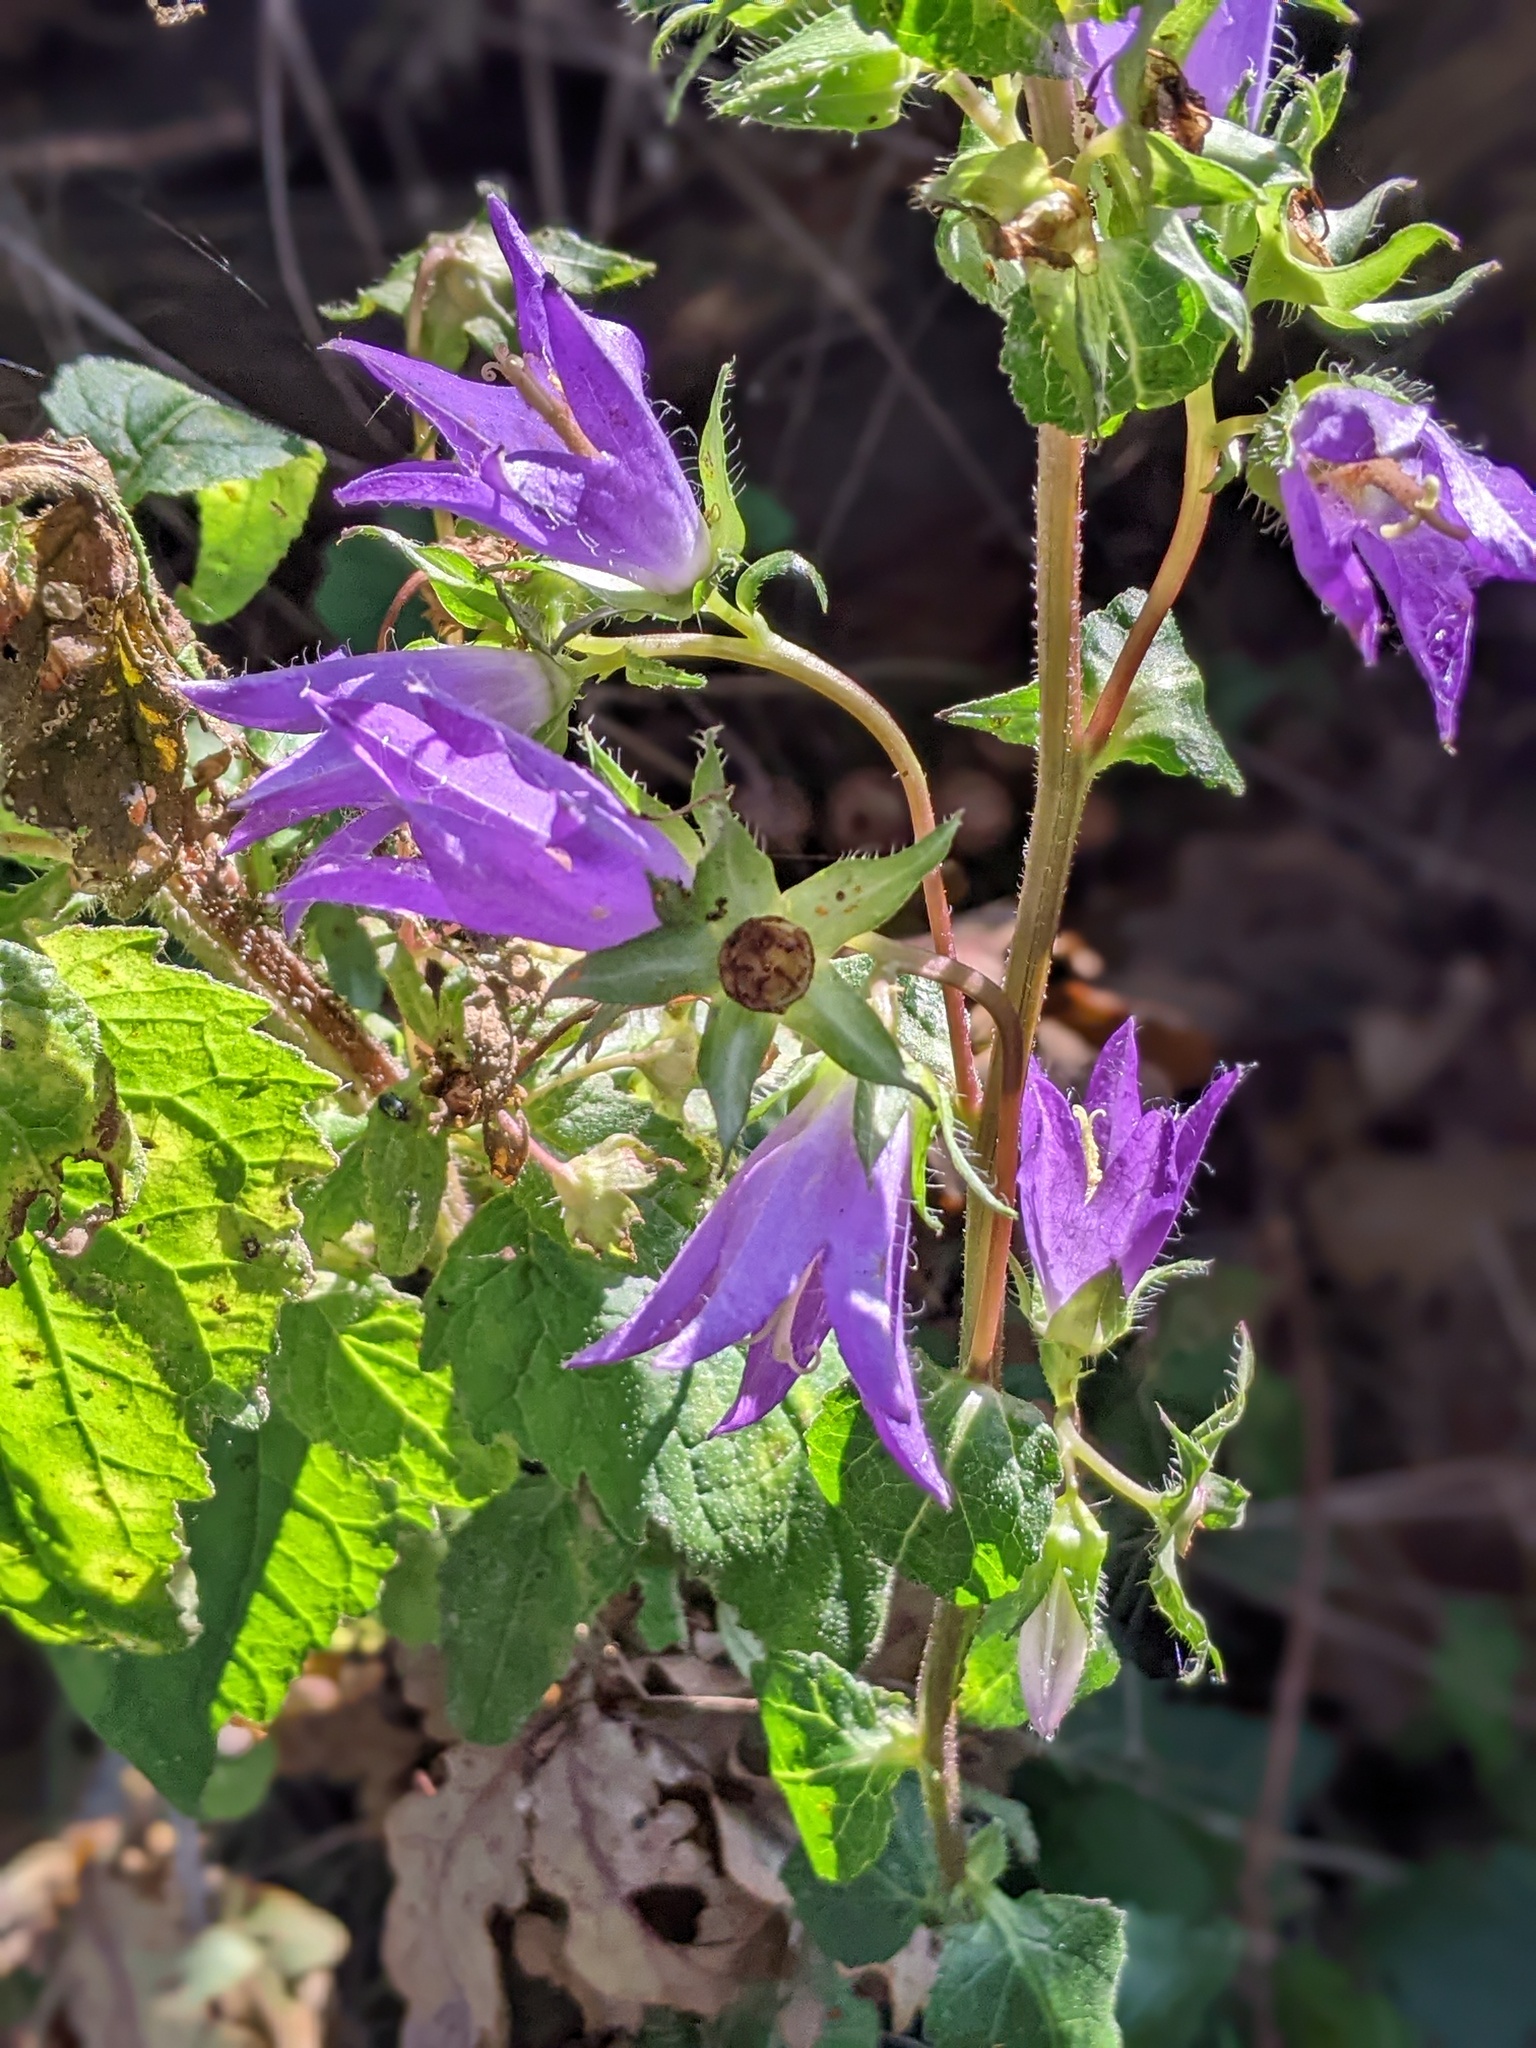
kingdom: Plantae
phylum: Tracheophyta
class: Magnoliopsida
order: Asterales
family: Campanulaceae
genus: Campanula
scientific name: Campanula trachelium
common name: Nettle-leaved bellflower
